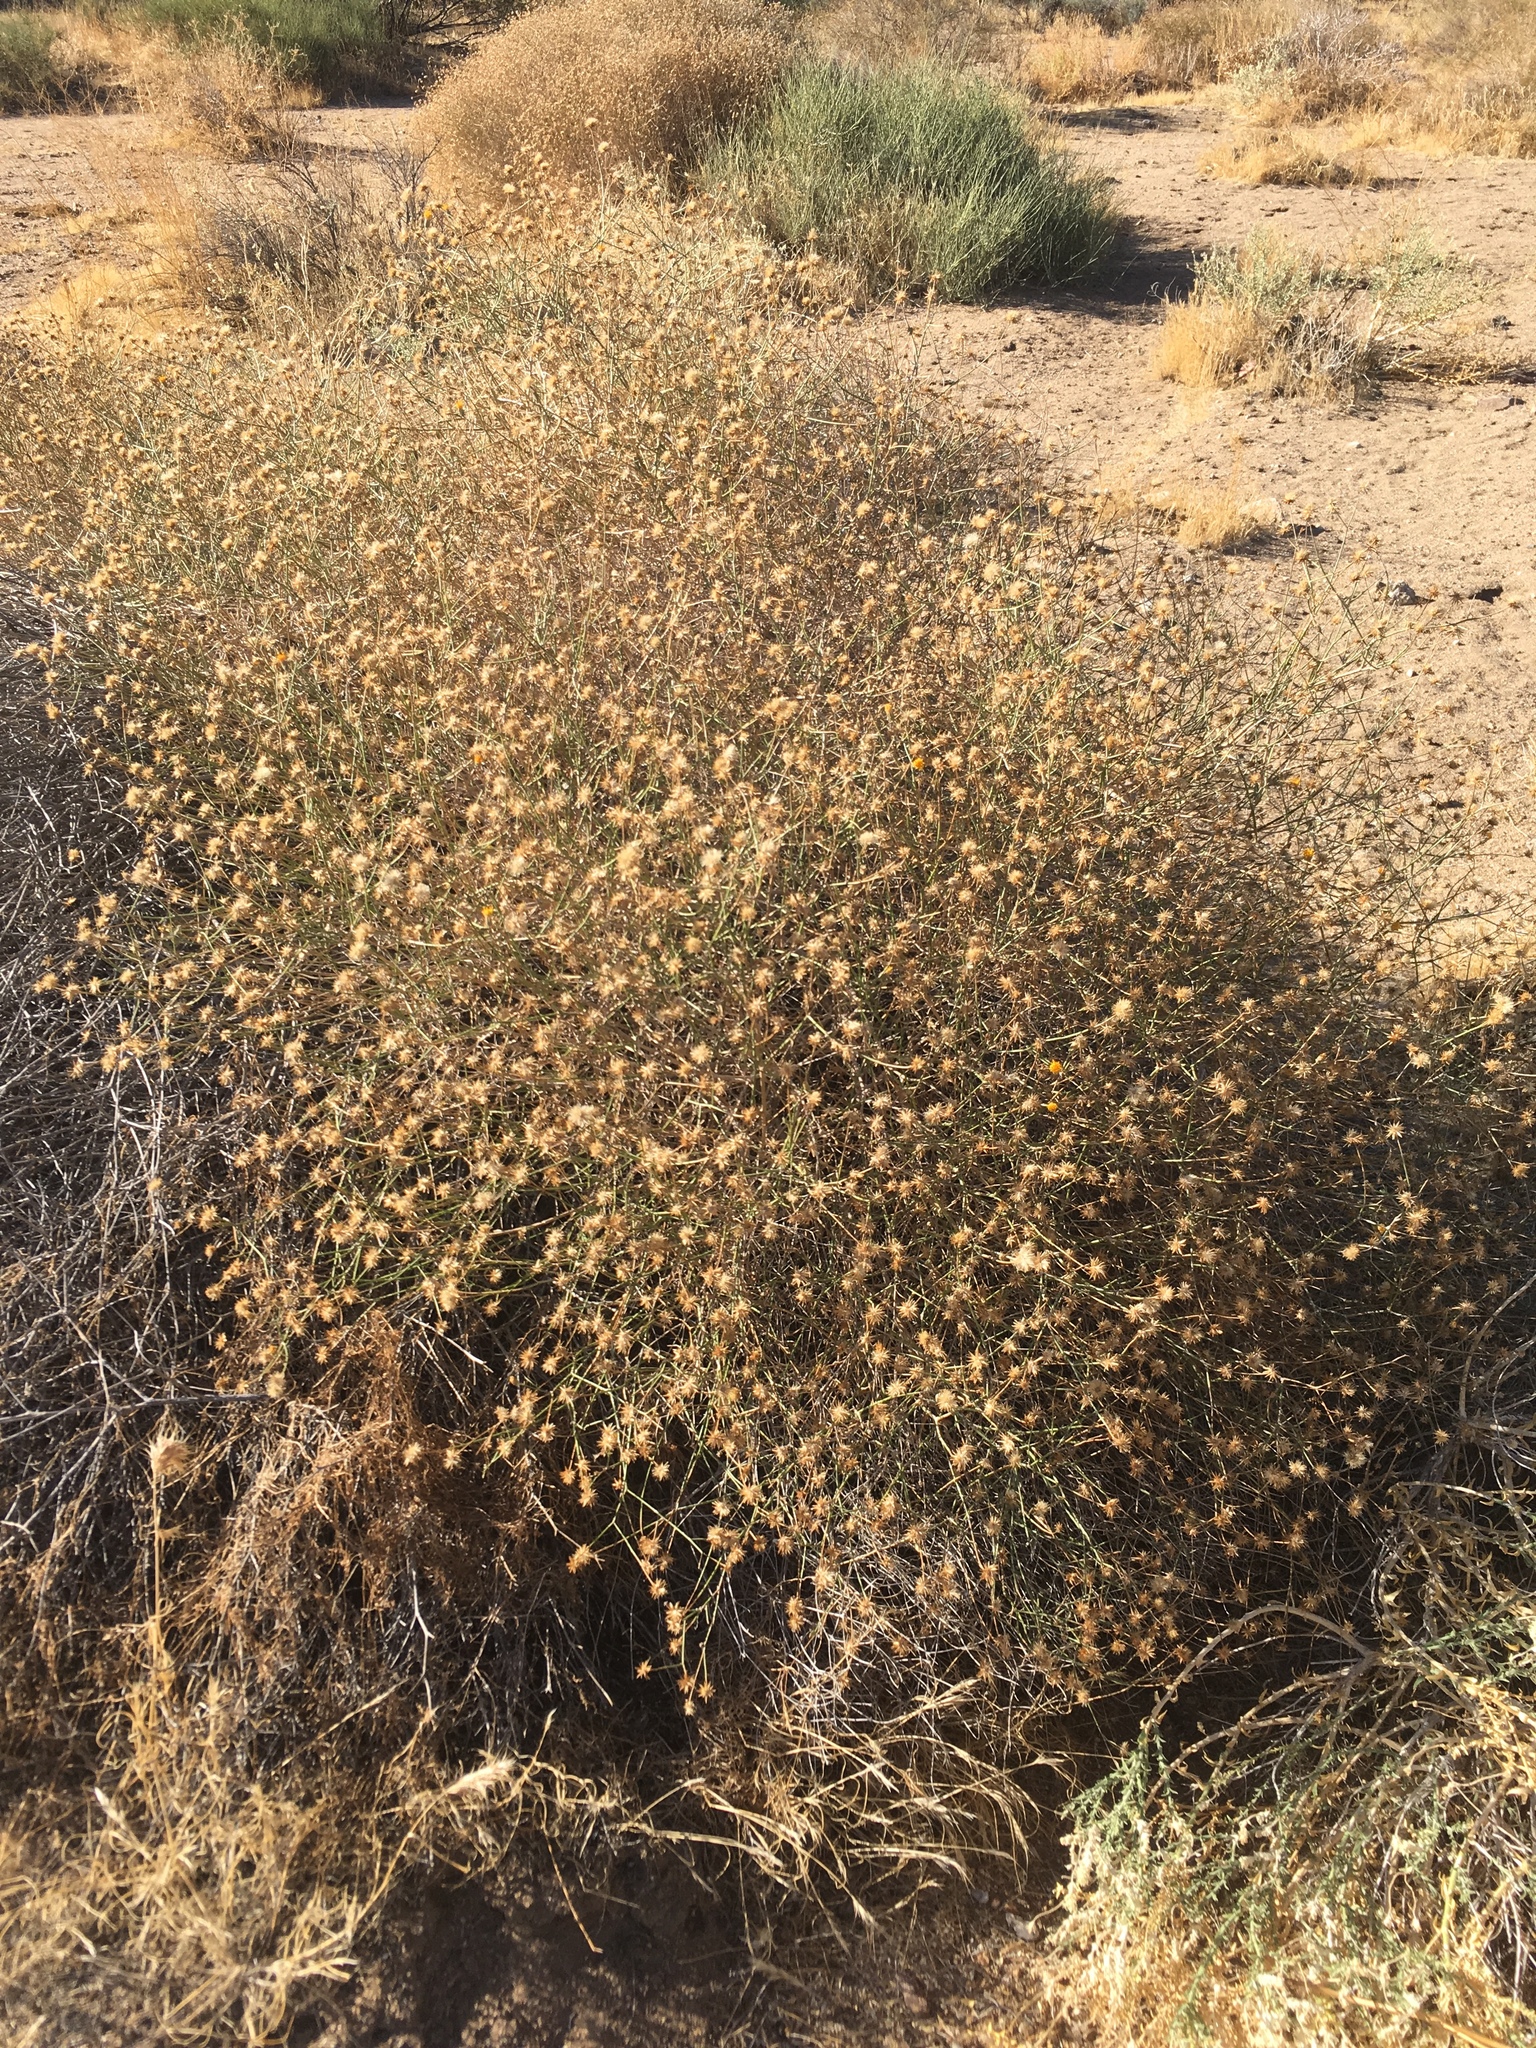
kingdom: Plantae
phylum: Tracheophyta
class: Magnoliopsida
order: Asterales
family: Asteraceae
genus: Bebbia
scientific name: Bebbia juncea
